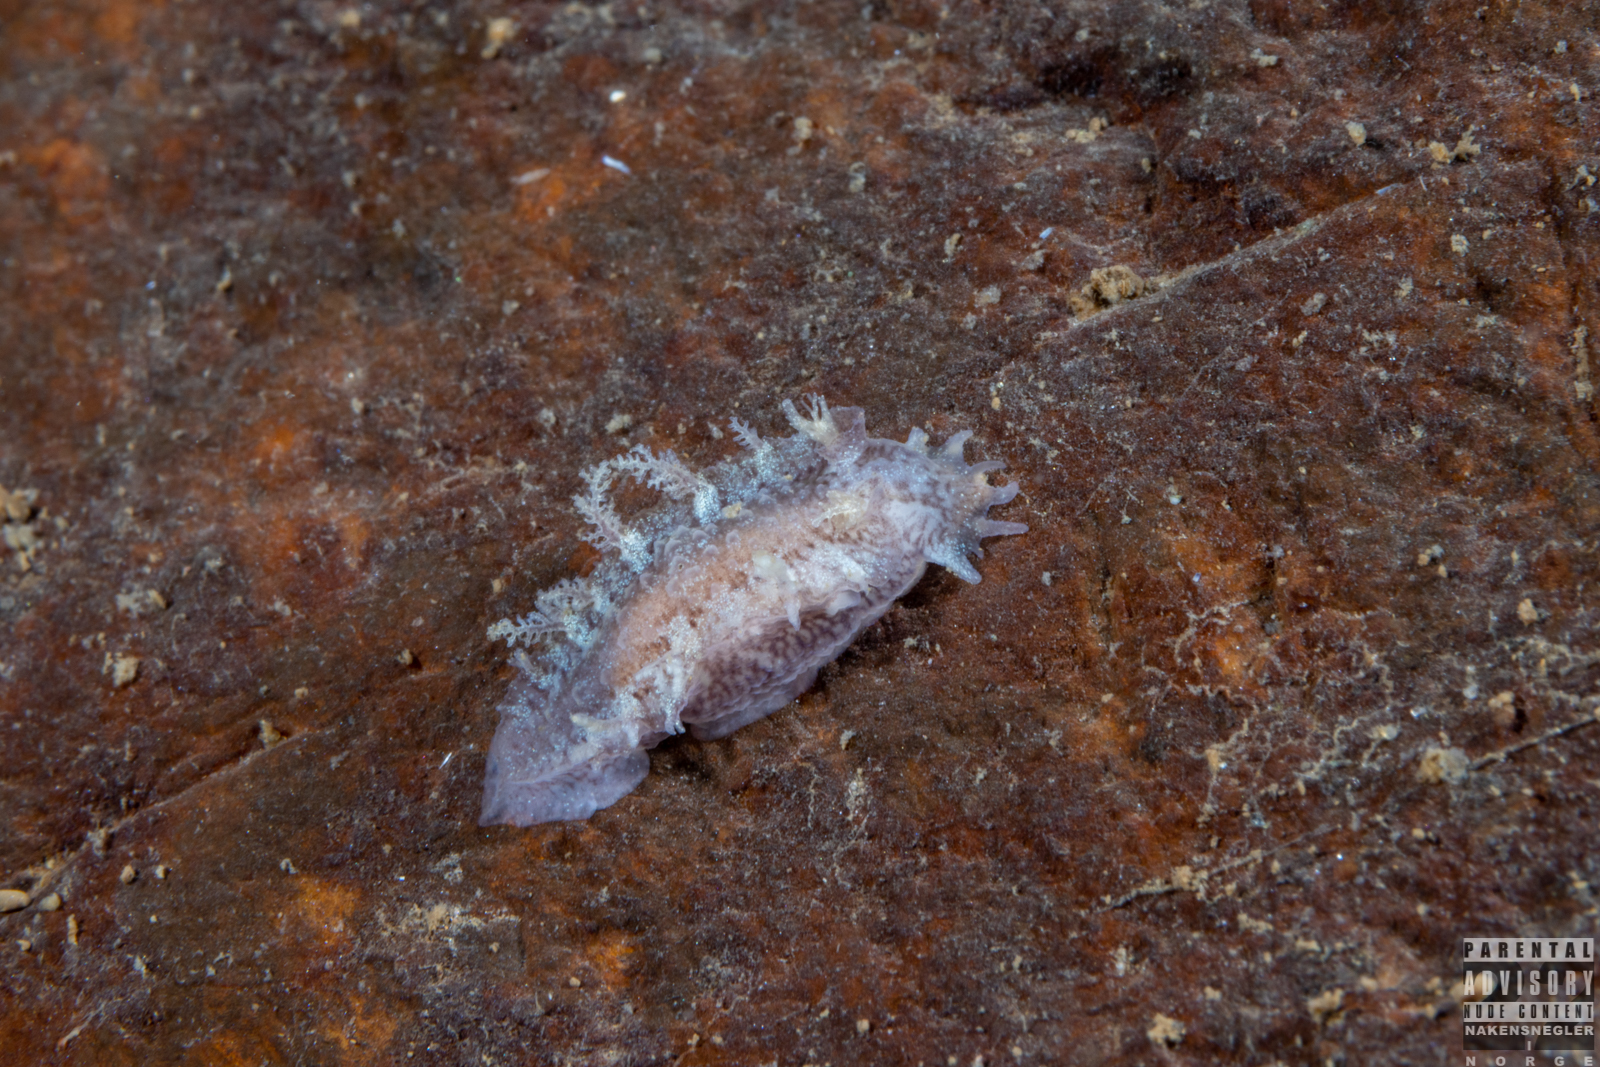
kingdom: Animalia
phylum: Mollusca
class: Gastropoda
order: Nudibranchia
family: Tritoniidae
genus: Duvaucelia
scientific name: Duvaucelia plebeia
